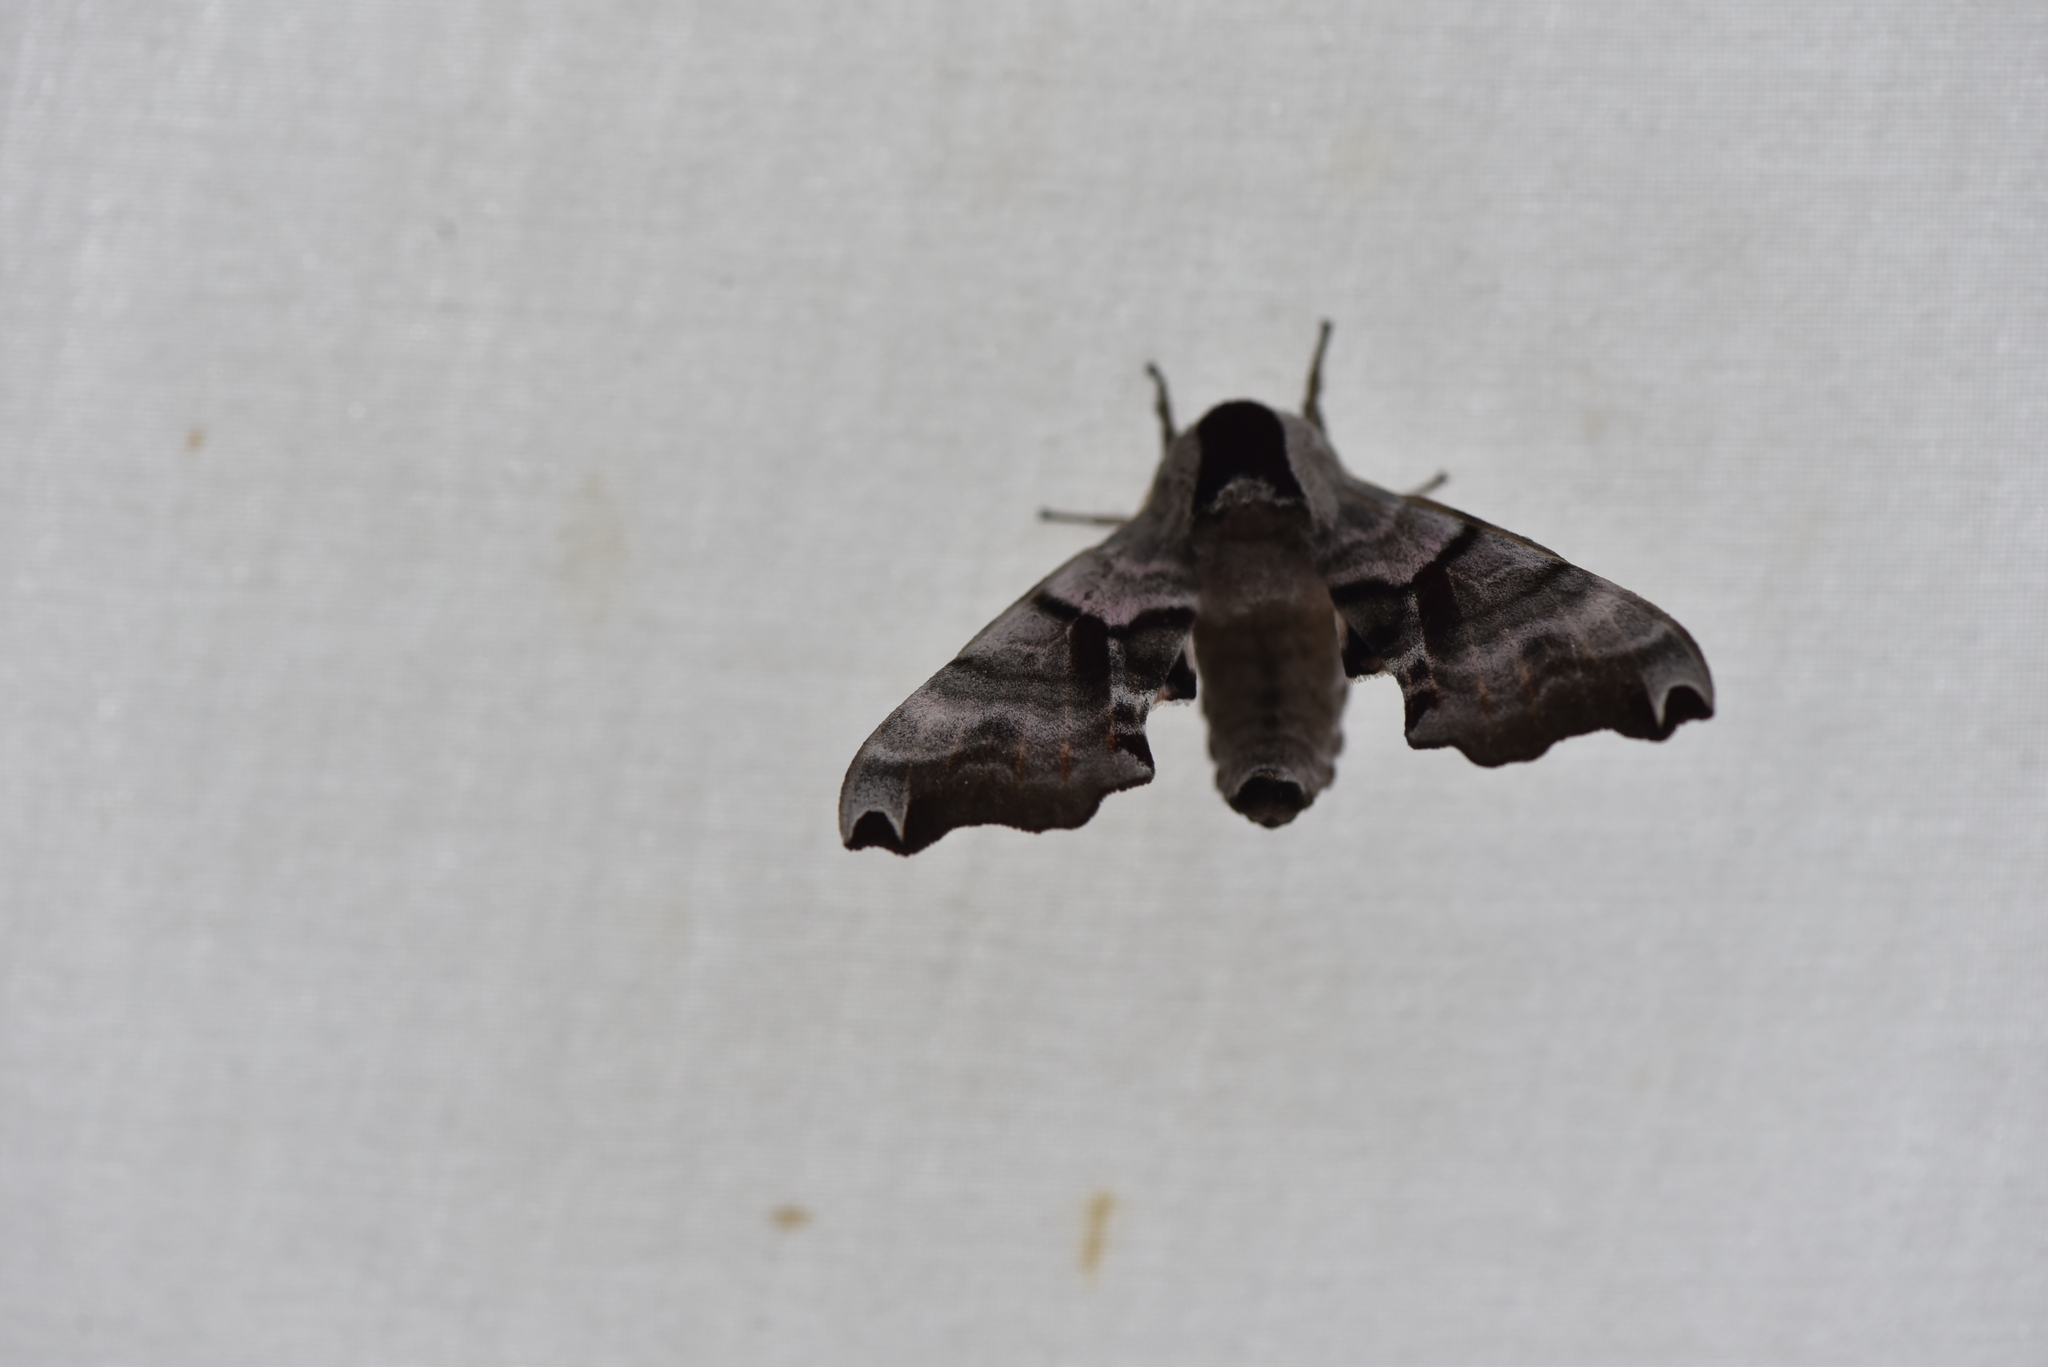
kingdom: Animalia
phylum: Arthropoda
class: Insecta
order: Lepidoptera
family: Sphingidae
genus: Smerinthus
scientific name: Smerinthus jamaicensis
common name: Twin spotted sphinx
